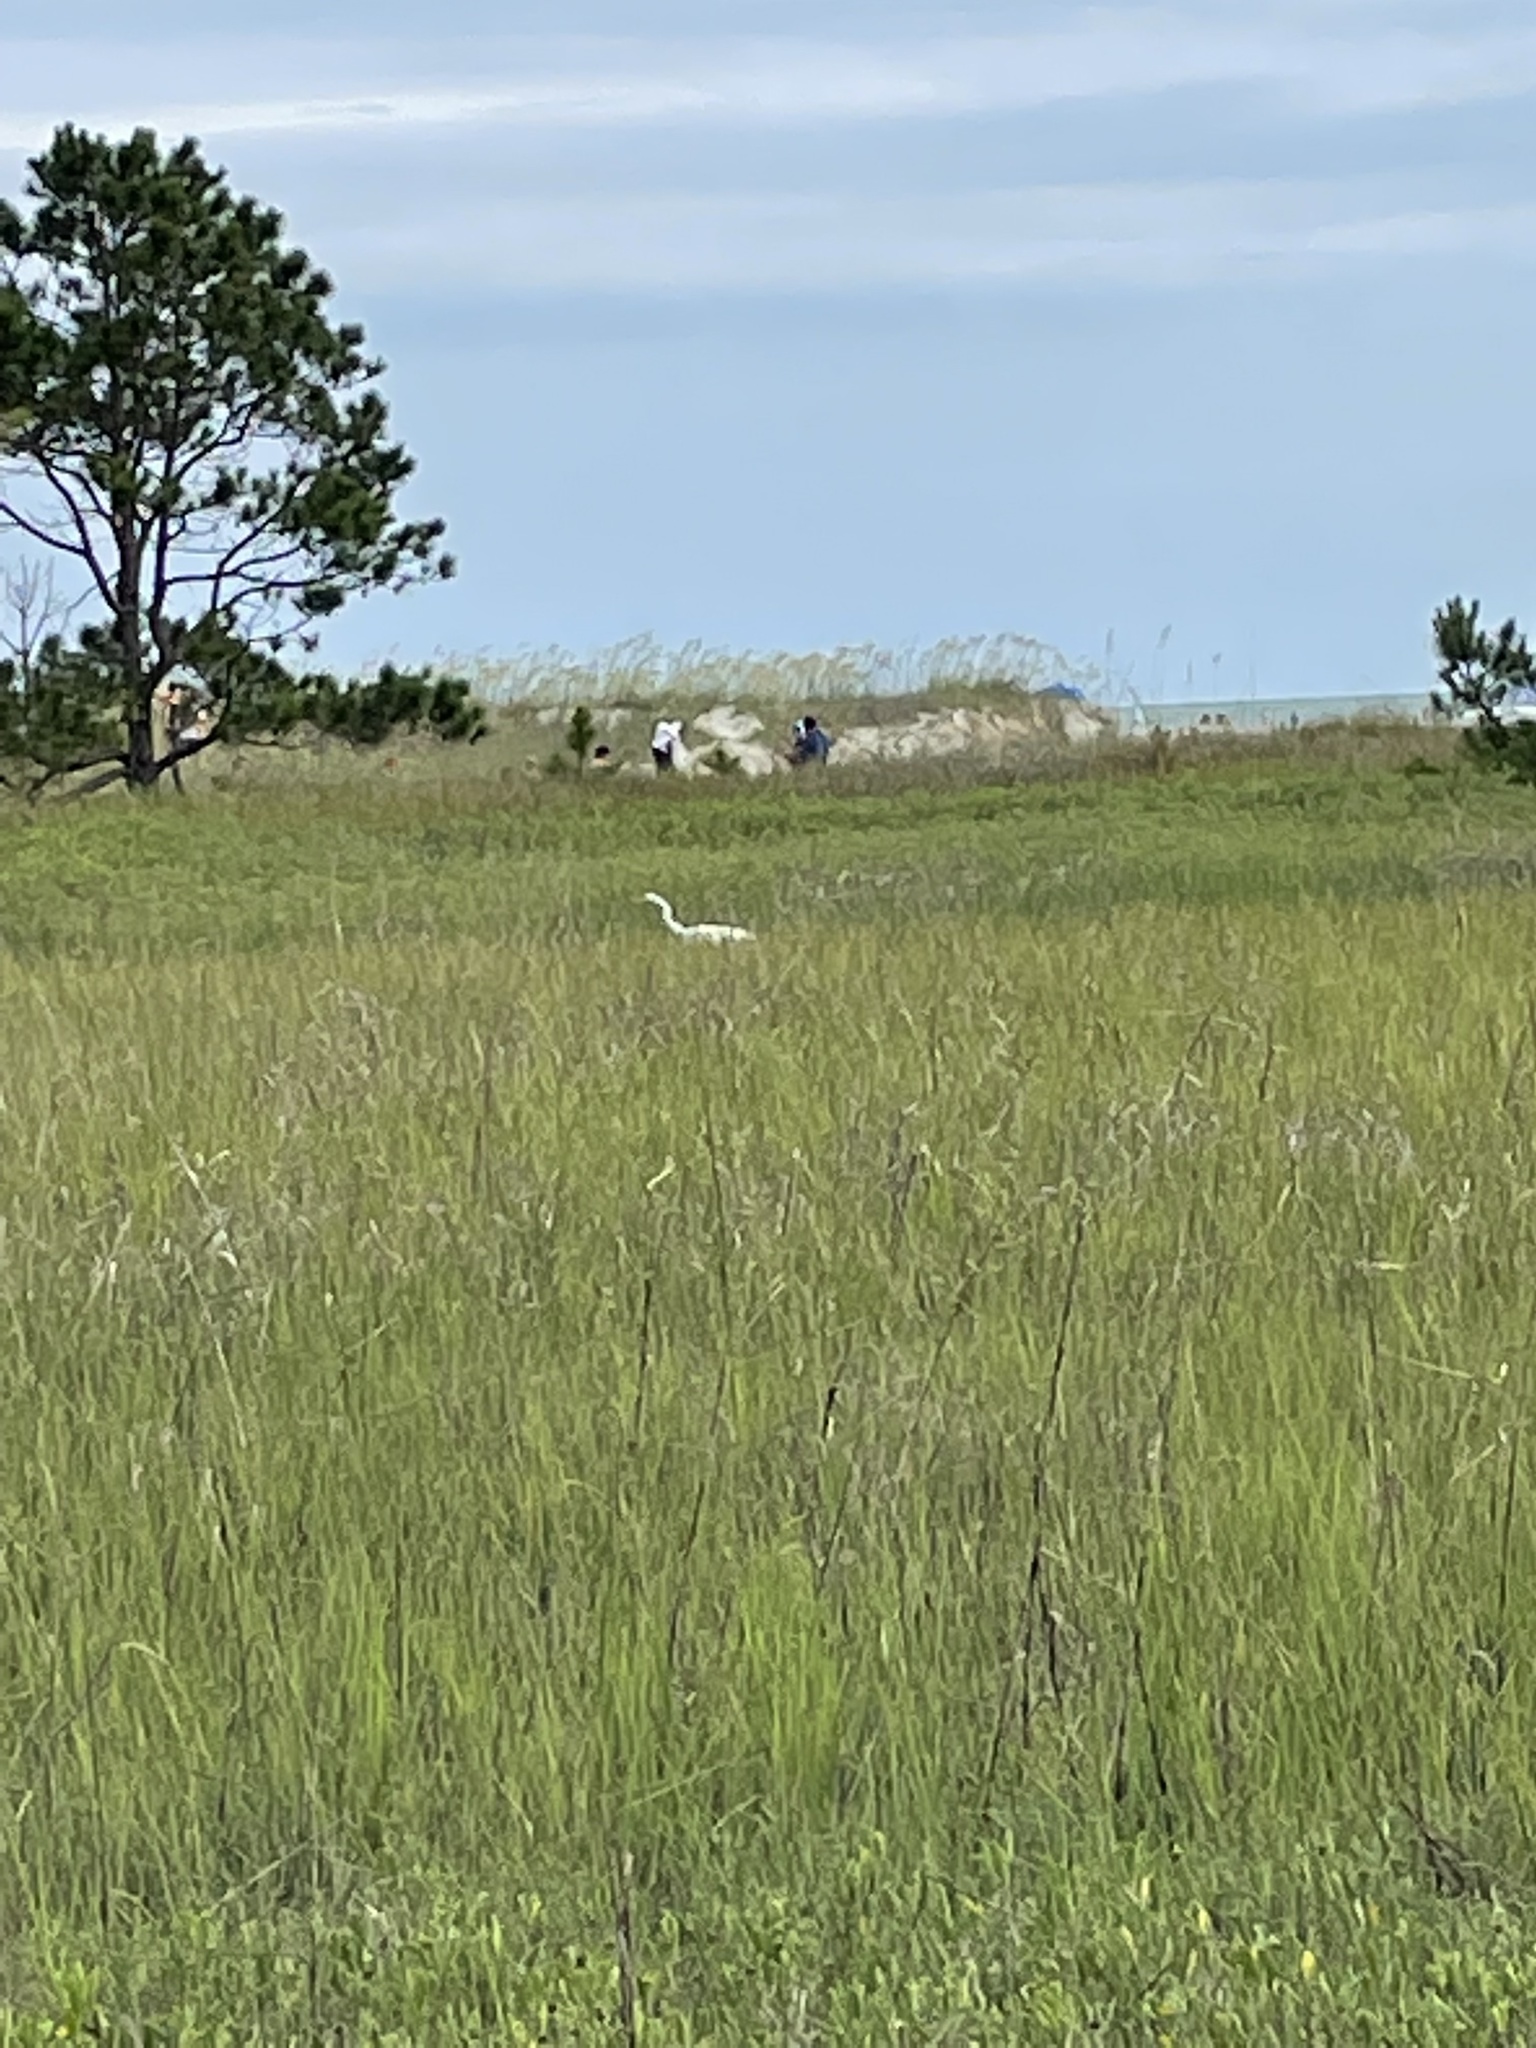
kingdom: Animalia
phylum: Chordata
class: Aves
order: Pelecaniformes
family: Ardeidae
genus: Ardea
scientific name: Ardea alba
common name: Great egret
